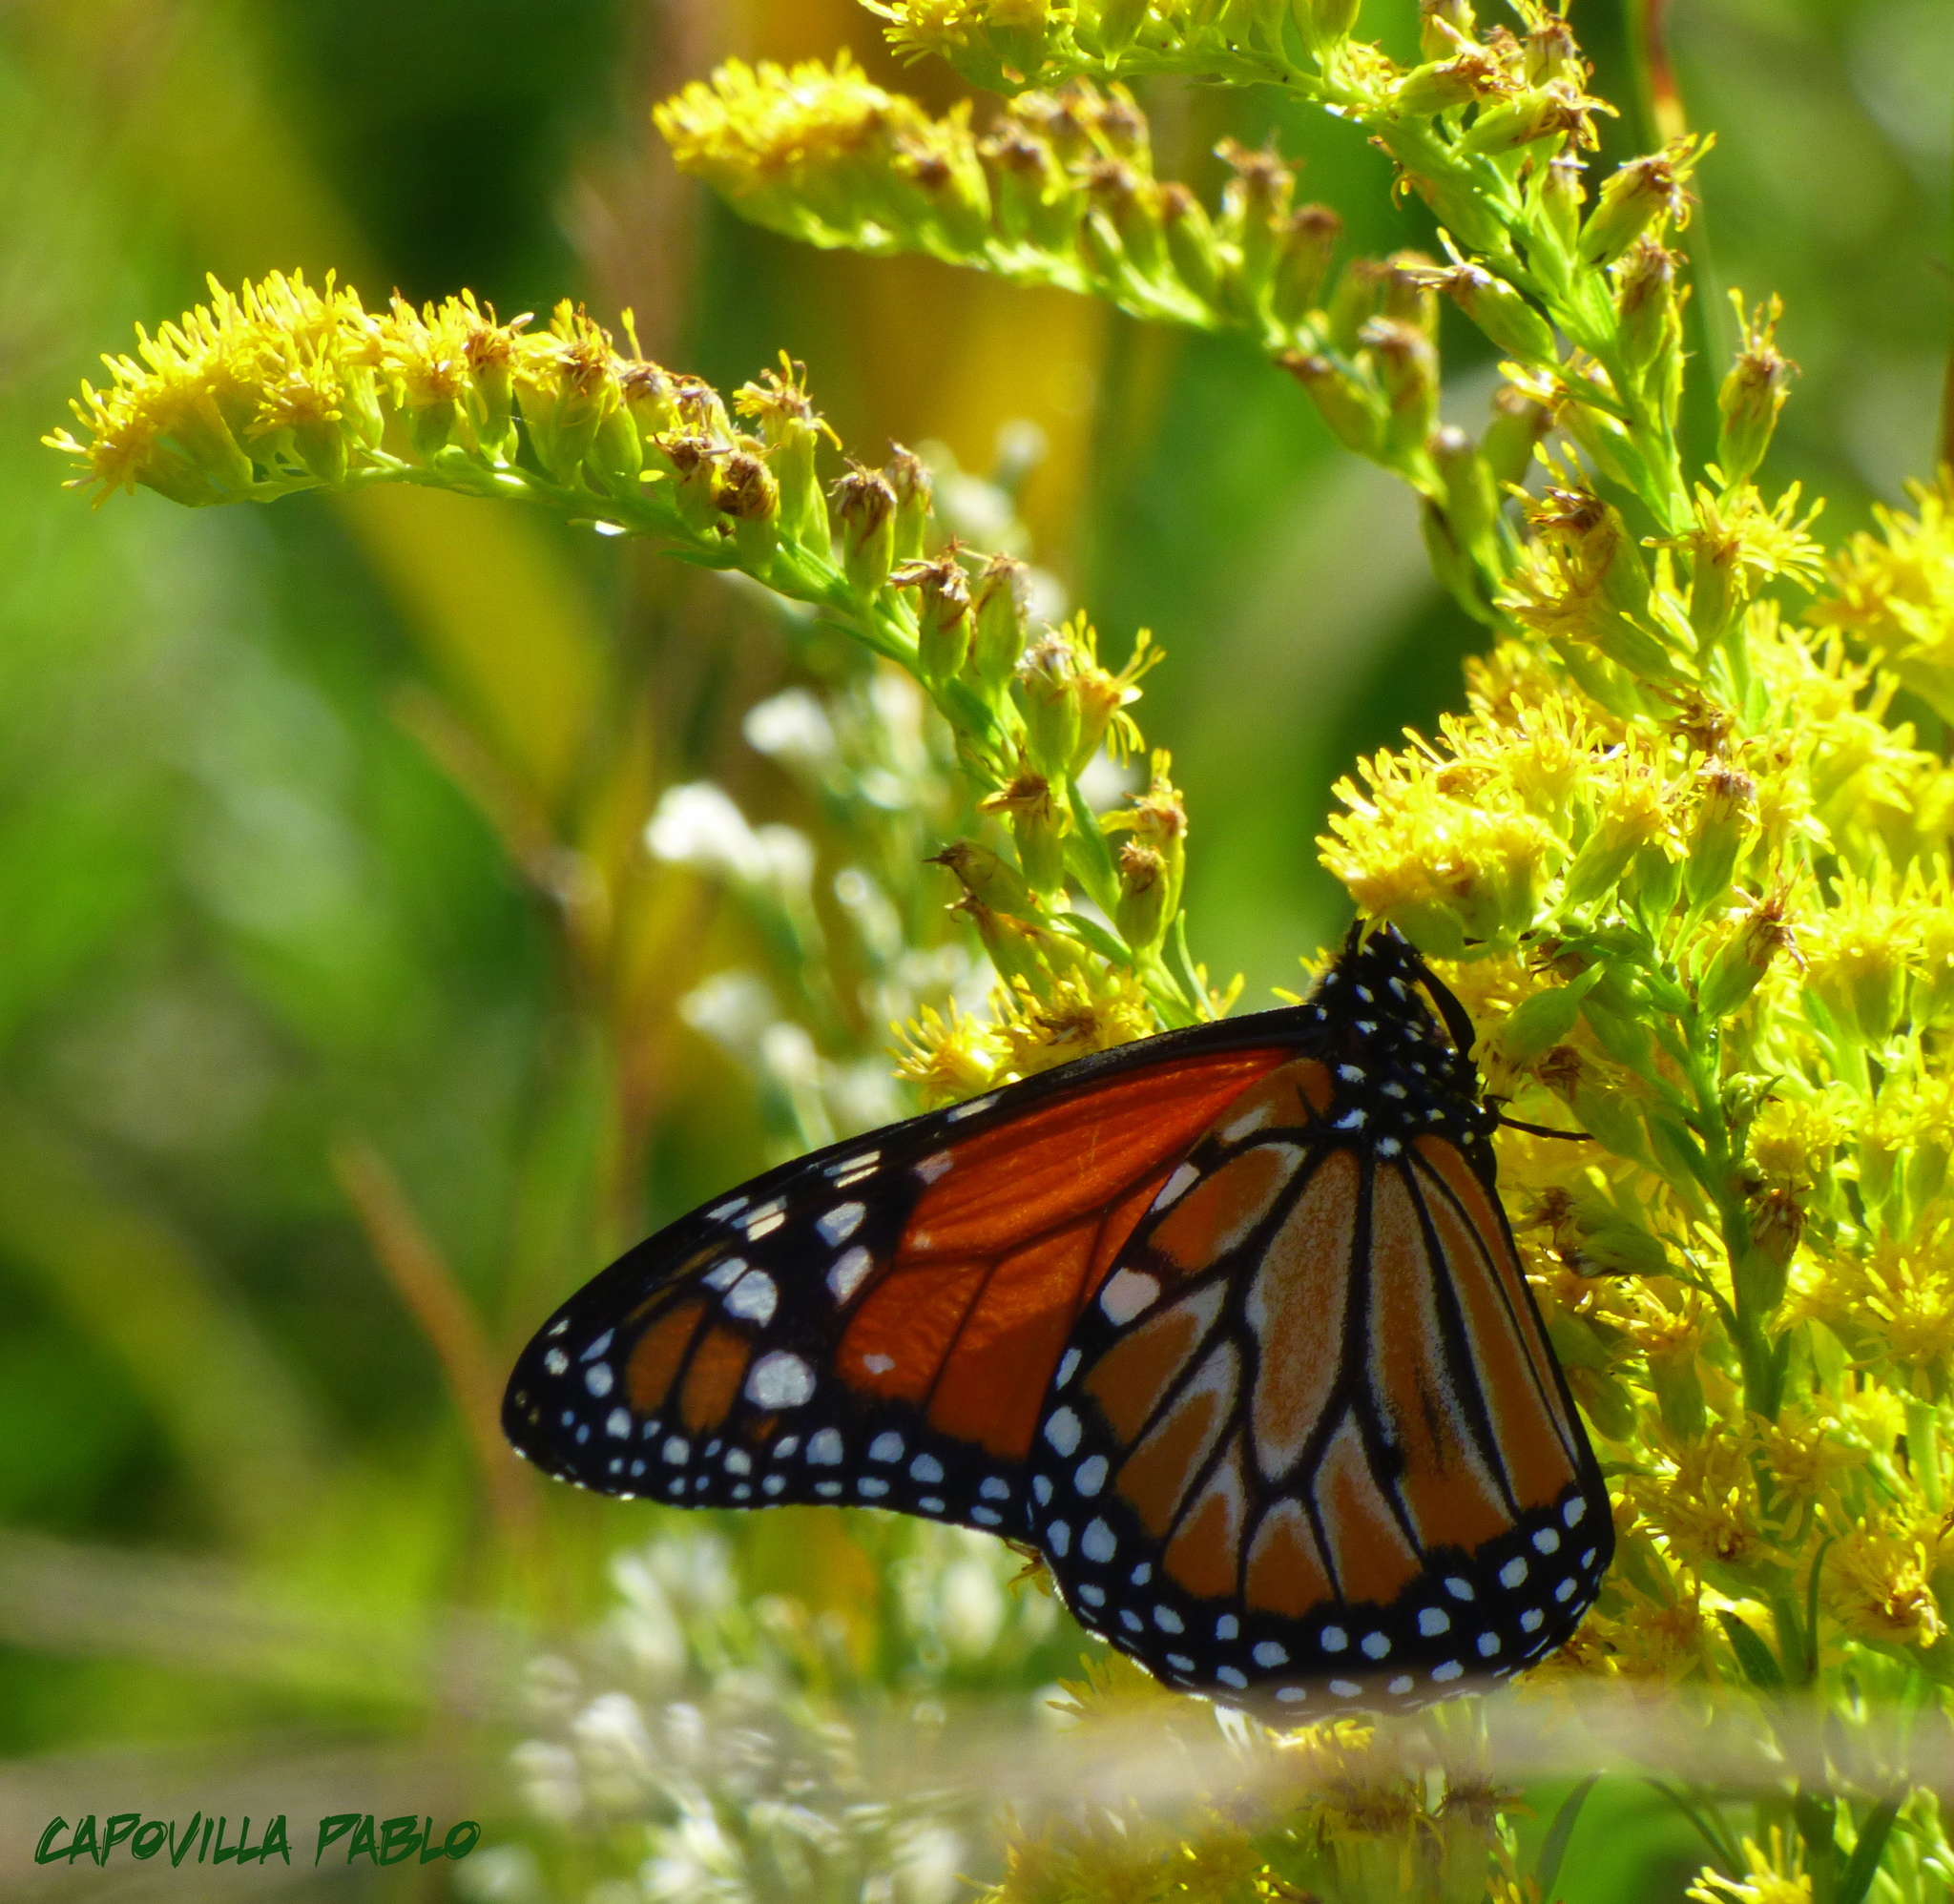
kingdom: Animalia
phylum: Arthropoda
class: Insecta
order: Lepidoptera
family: Nymphalidae
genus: Danaus
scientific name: Danaus erippus
